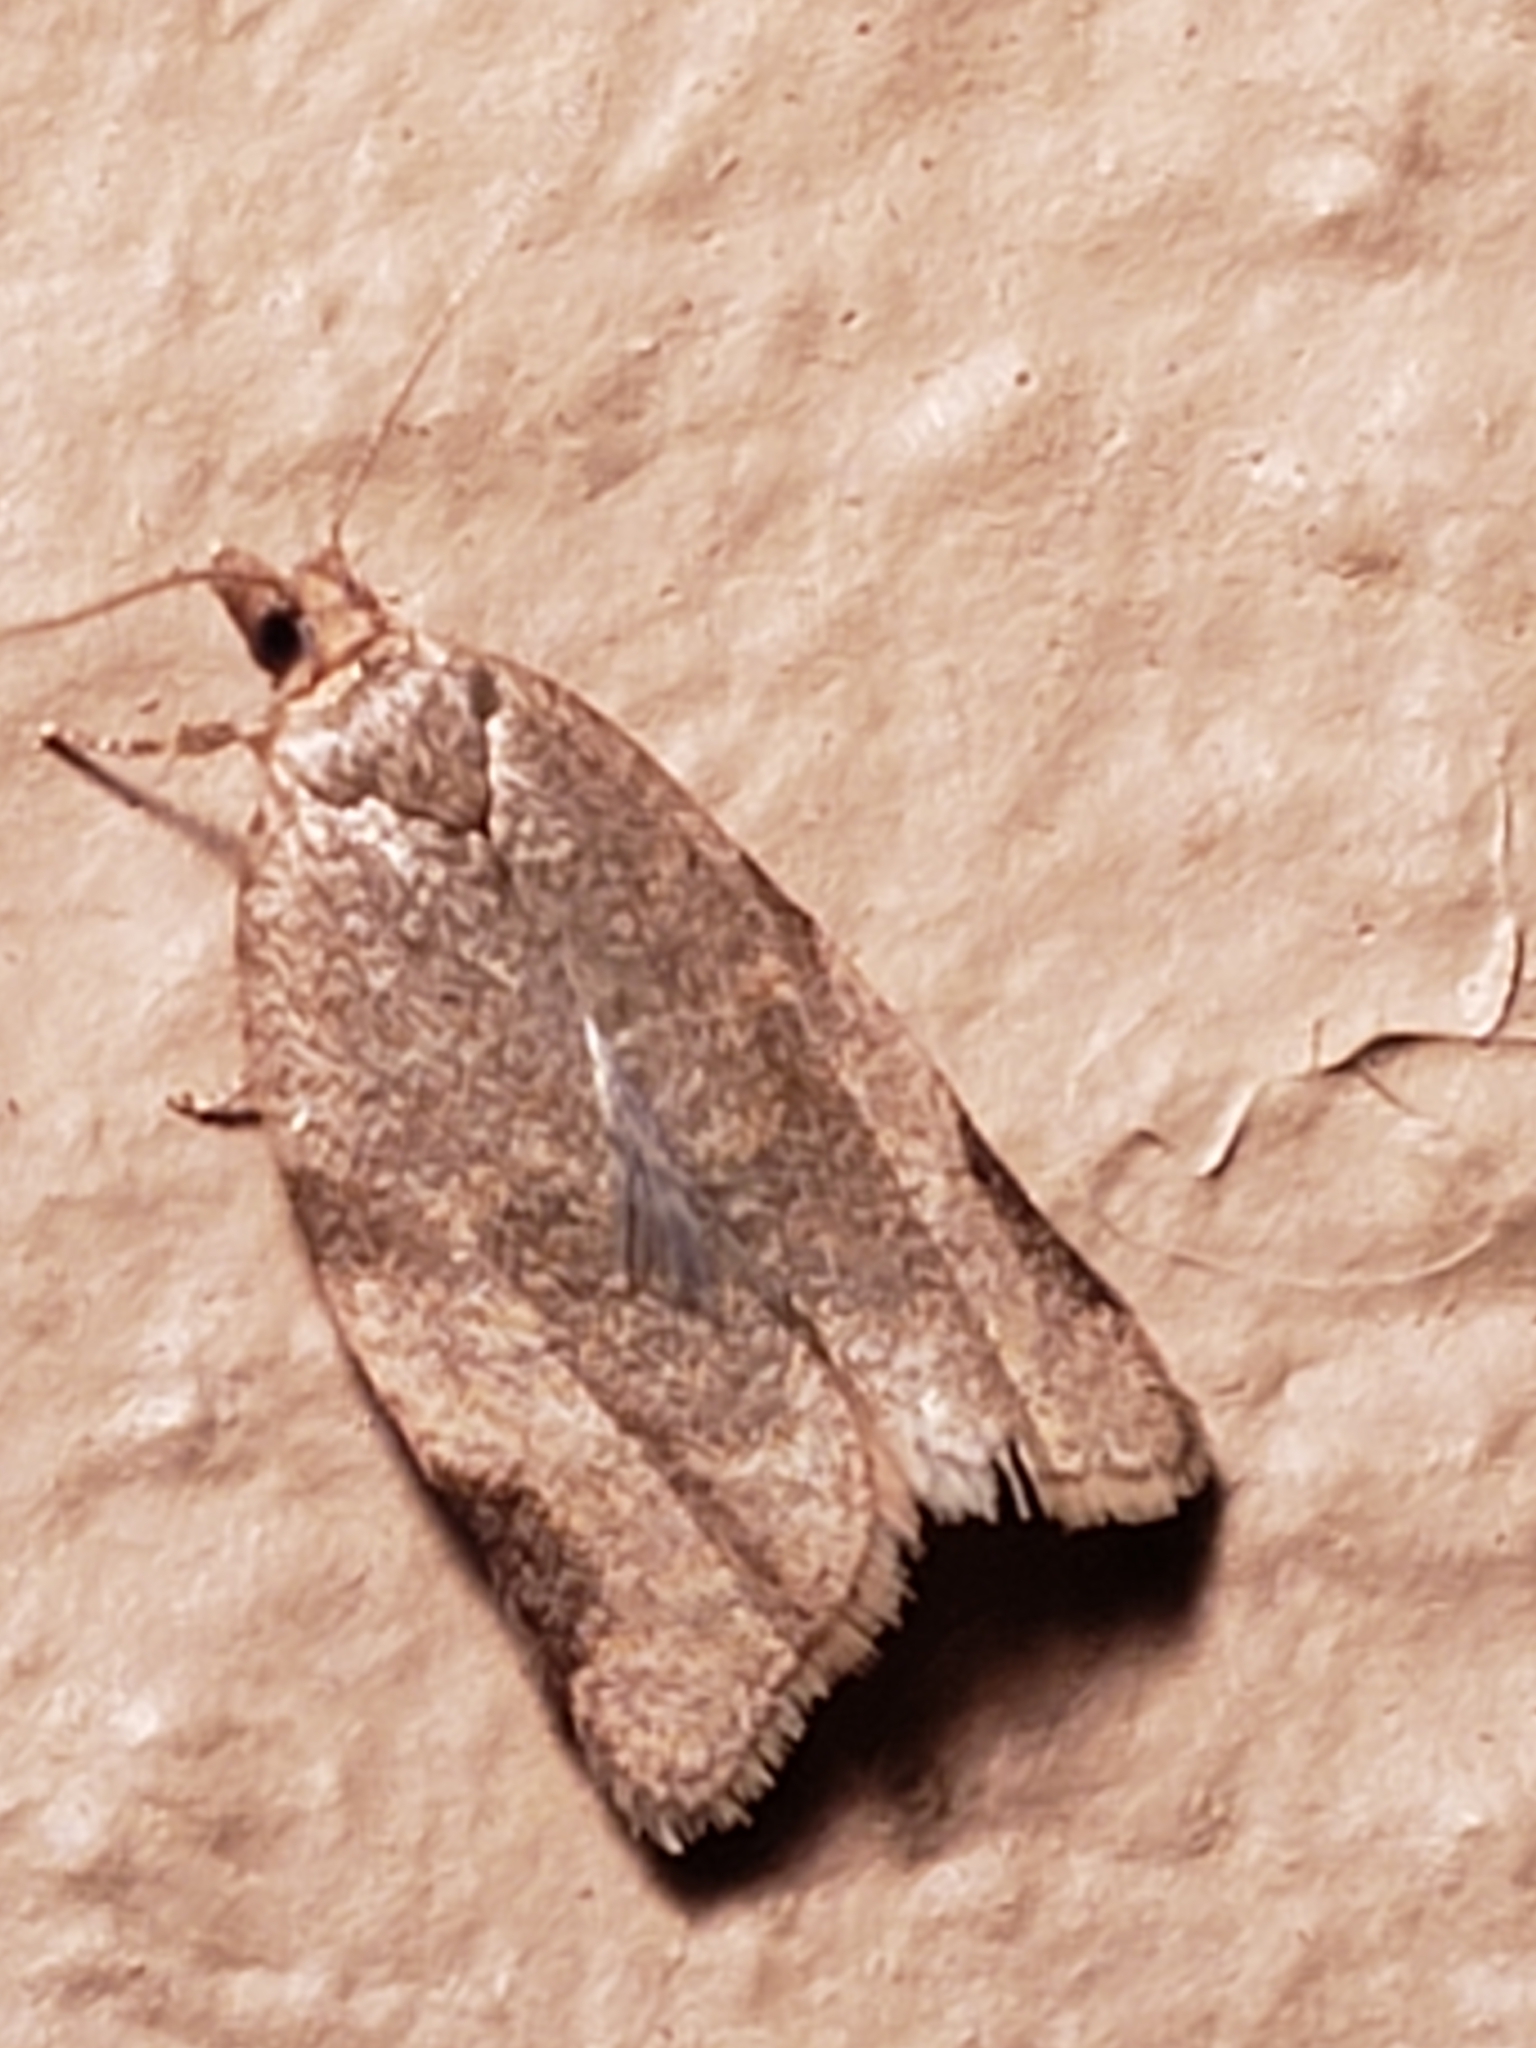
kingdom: Animalia
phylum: Arthropoda
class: Insecta
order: Lepidoptera
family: Tortricidae
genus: Clepsis
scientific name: Clepsis virescana
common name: Greenish apple moth
